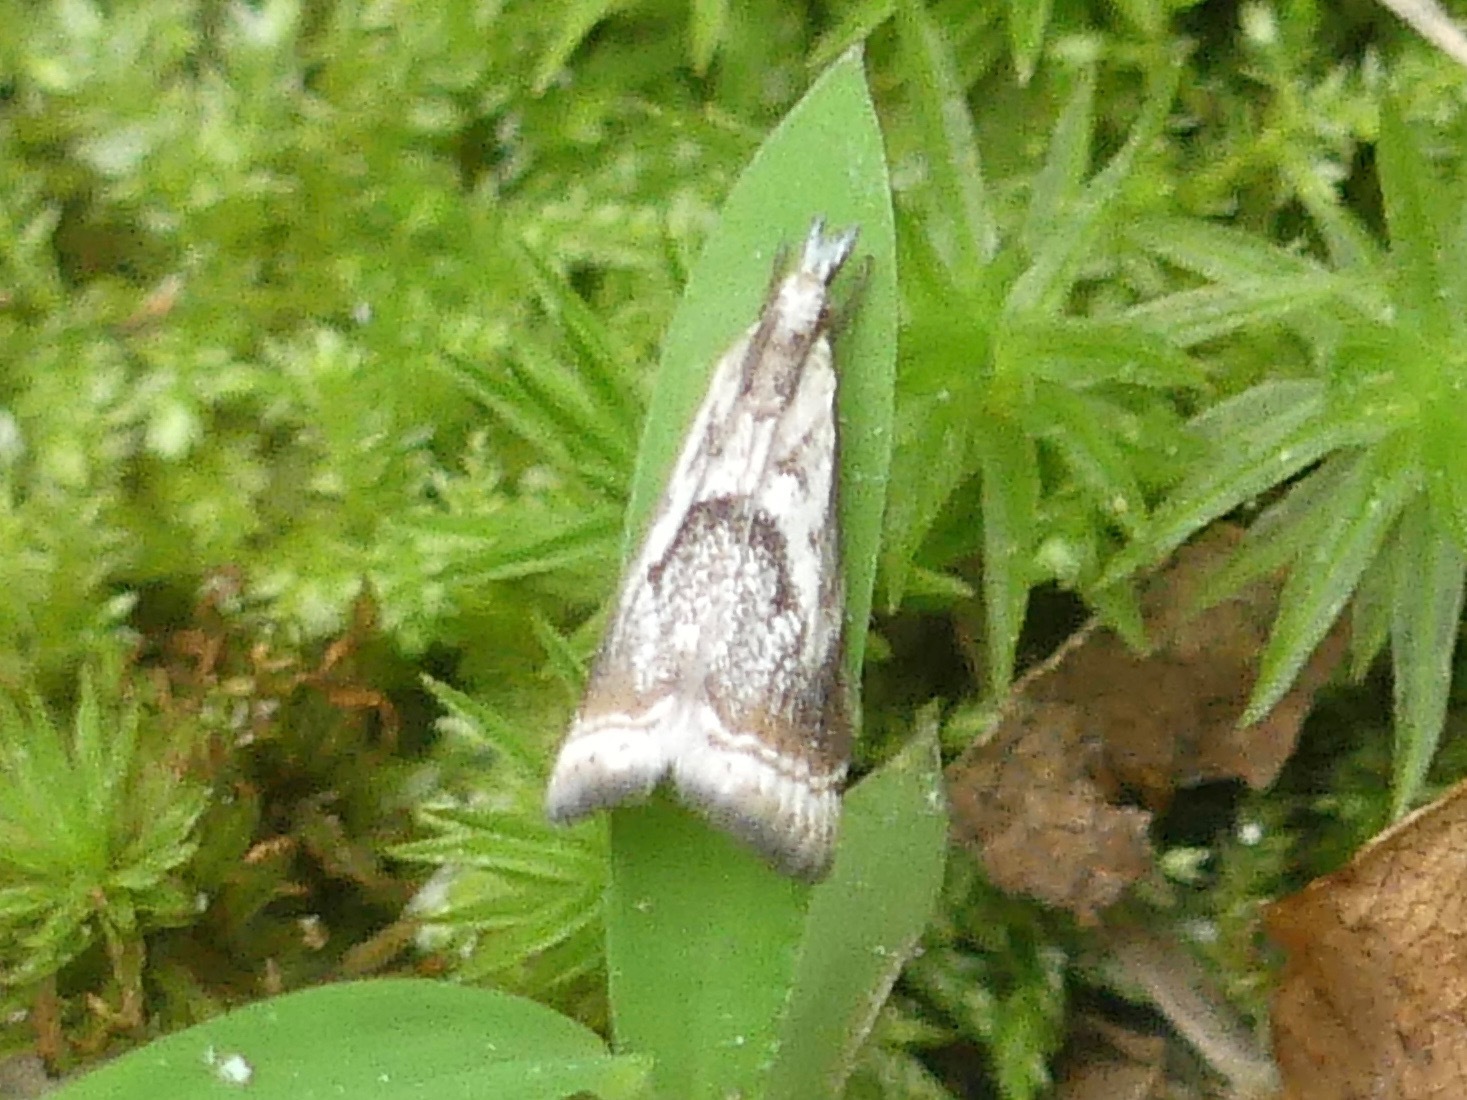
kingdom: Animalia
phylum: Arthropoda
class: Insecta
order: Lepidoptera
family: Crambidae
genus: Microcrambus
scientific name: Microcrambus elegans
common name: Elegant grass-veneer
